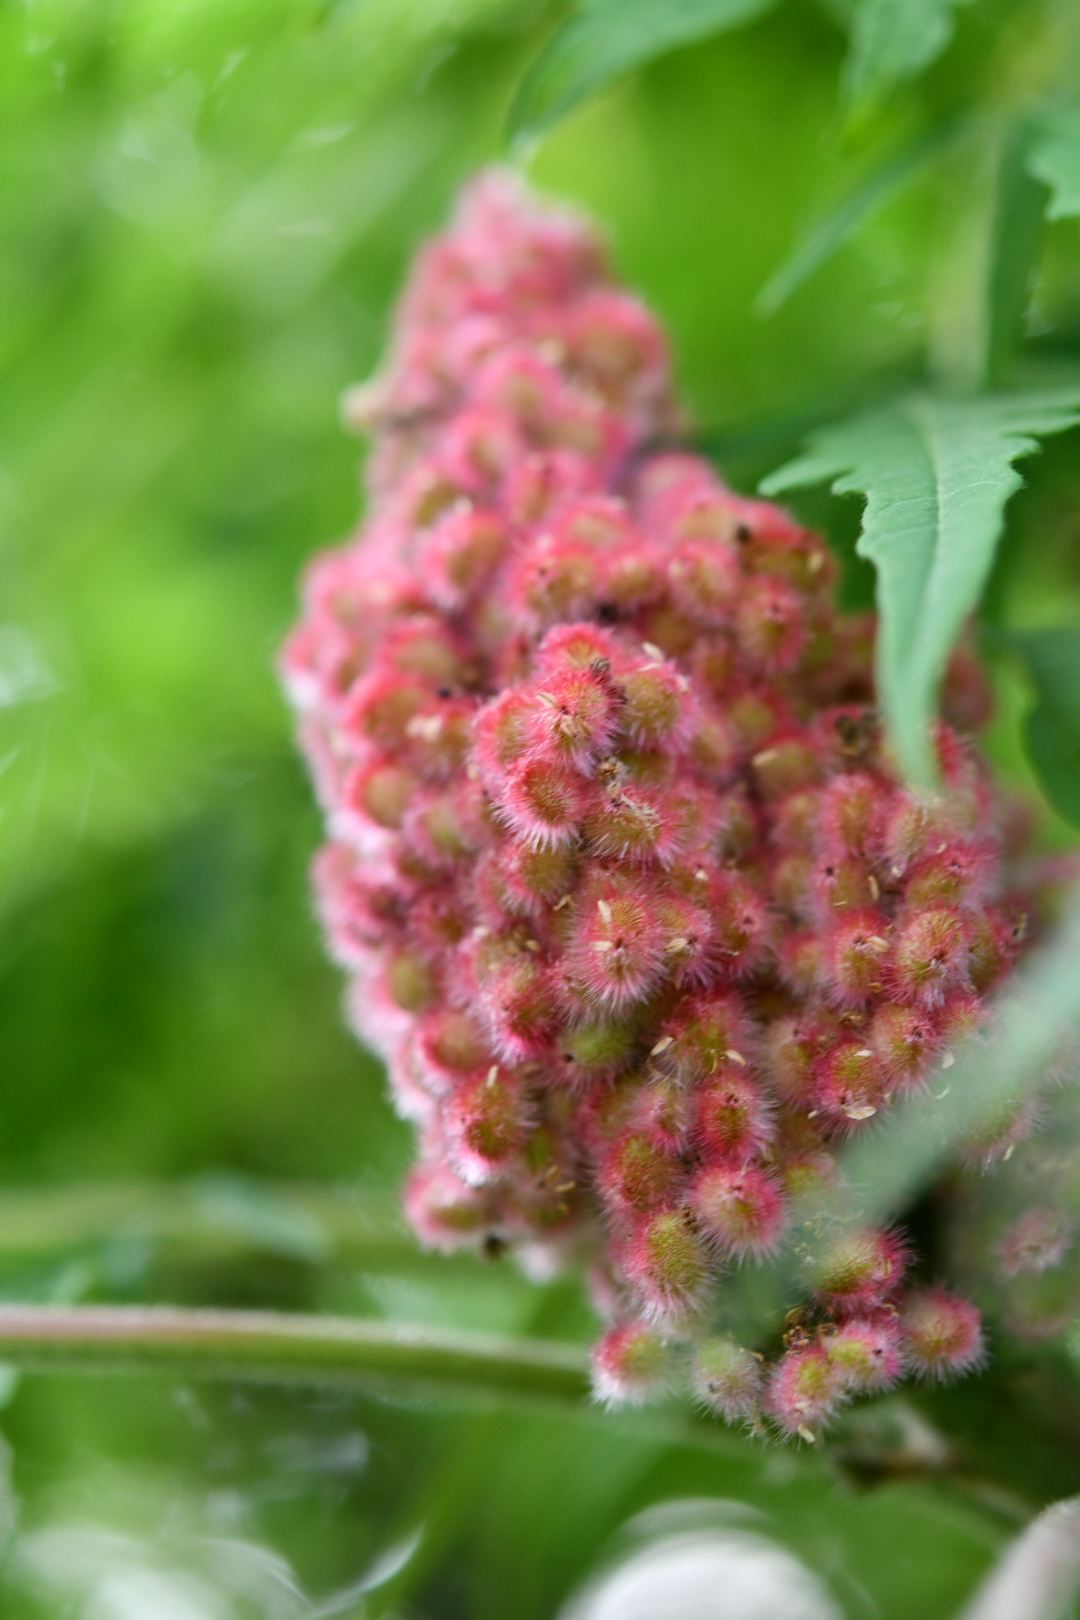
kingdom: Plantae
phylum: Tracheophyta
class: Magnoliopsida
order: Sapindales
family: Anacardiaceae
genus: Rhus
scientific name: Rhus typhina
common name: Staghorn sumac
